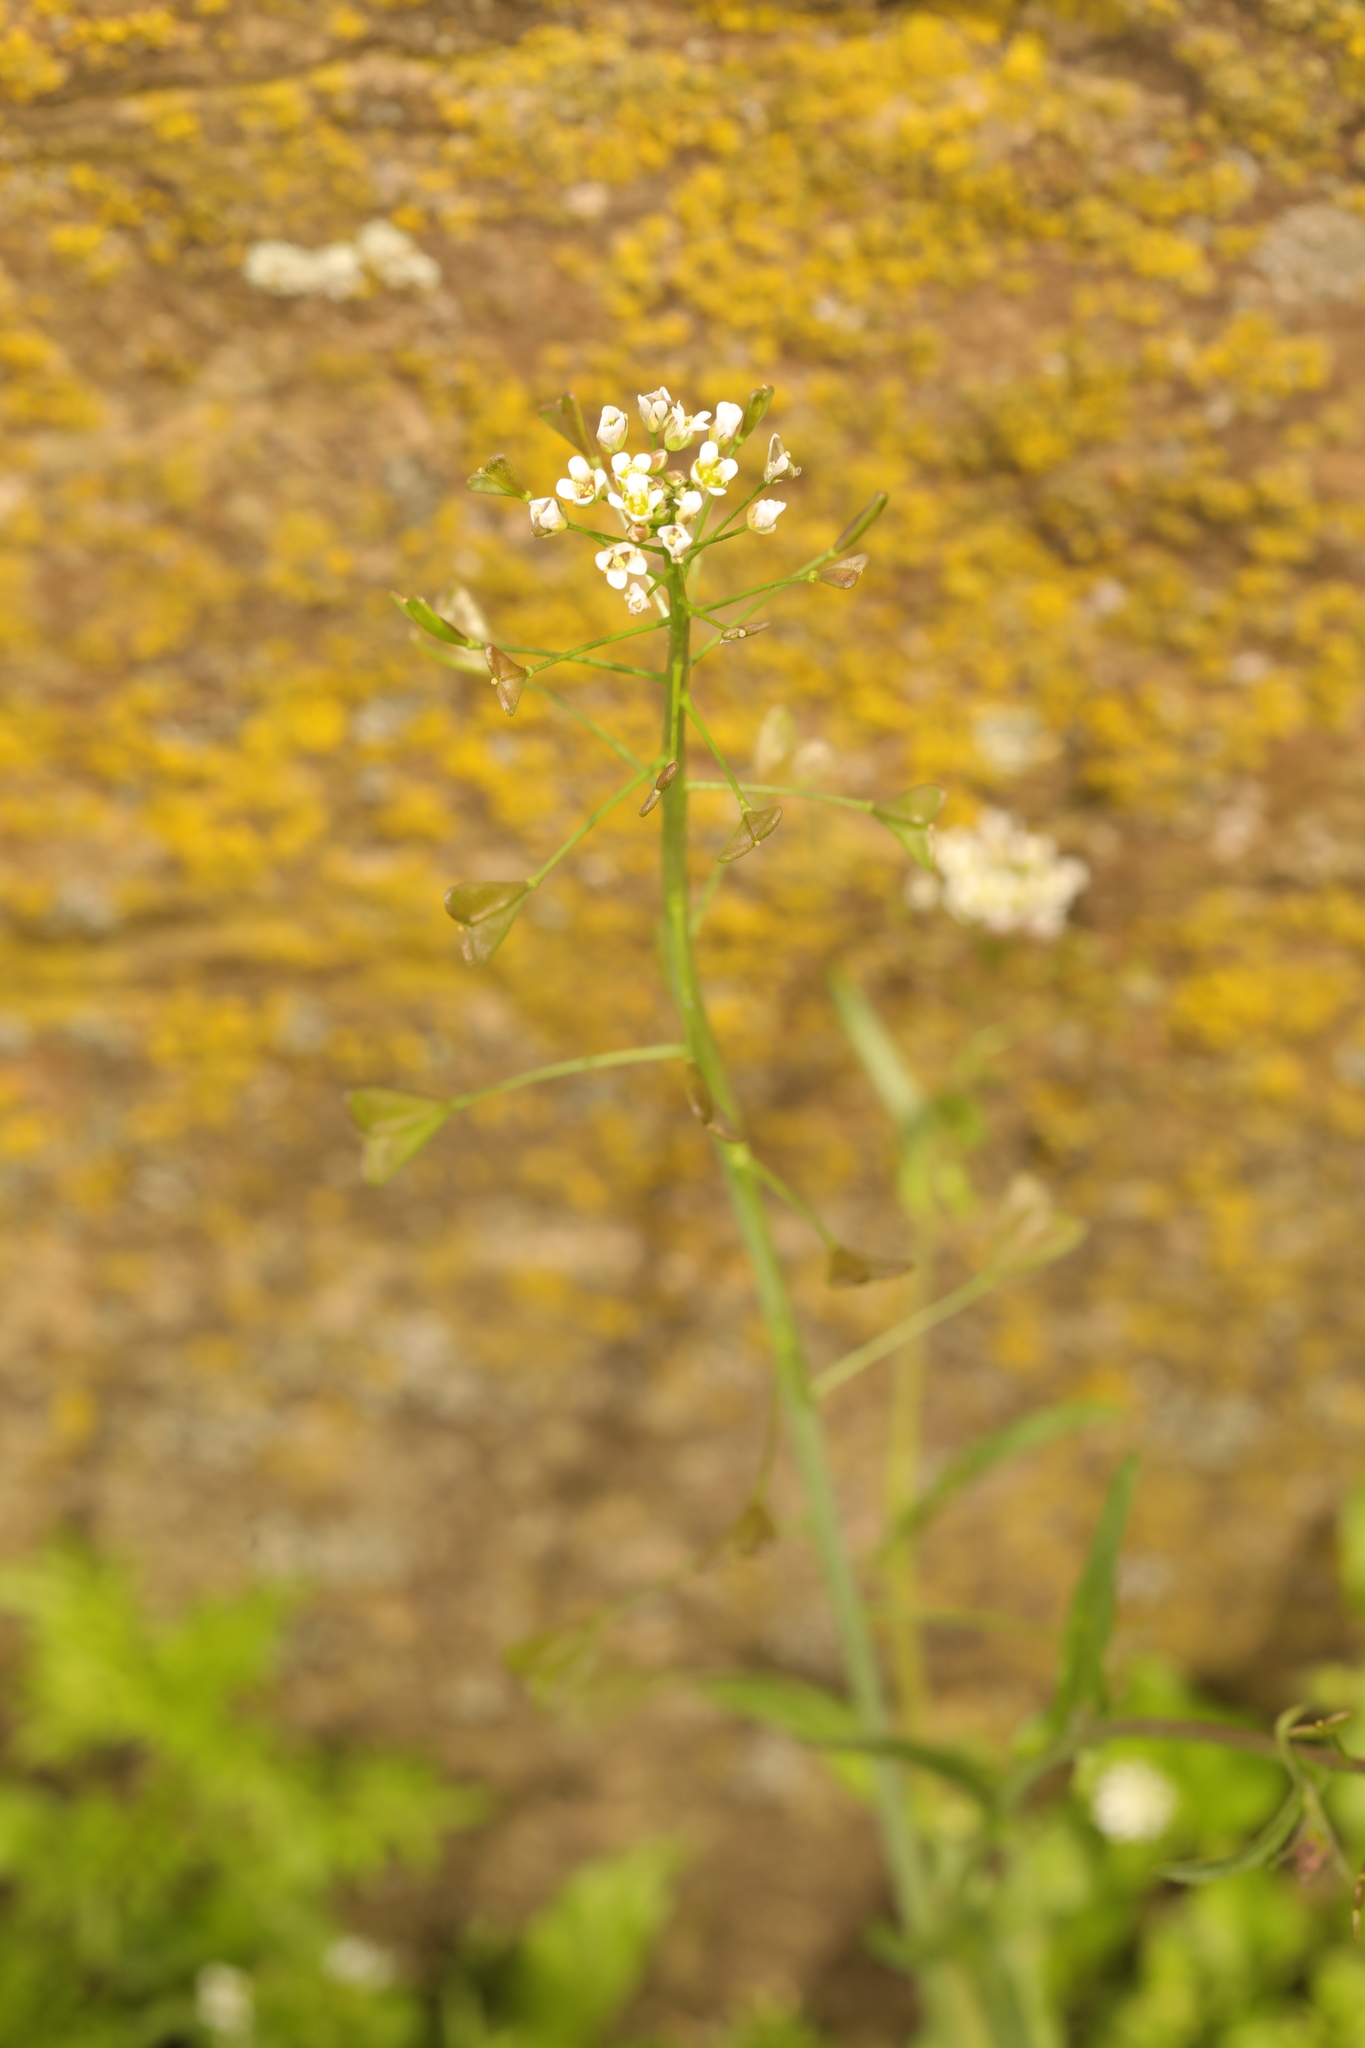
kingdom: Plantae
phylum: Tracheophyta
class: Magnoliopsida
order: Brassicales
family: Brassicaceae
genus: Capsella
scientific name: Capsella bursa-pastoris
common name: Shepherd's purse
